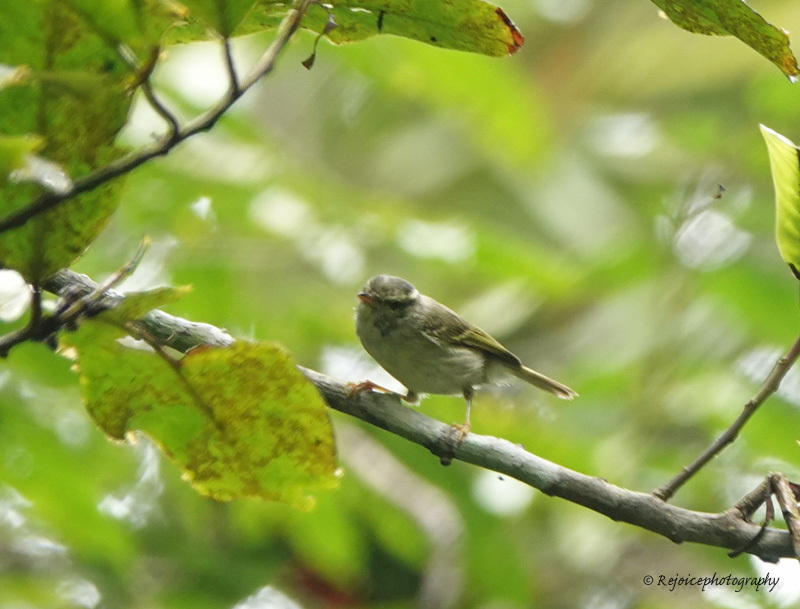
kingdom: Animalia
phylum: Chordata
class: Aves
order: Passeriformes
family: Phylloscopidae
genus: Phylloscopus
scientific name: Phylloscopus reguloides
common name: Blyth's leaf warbler
